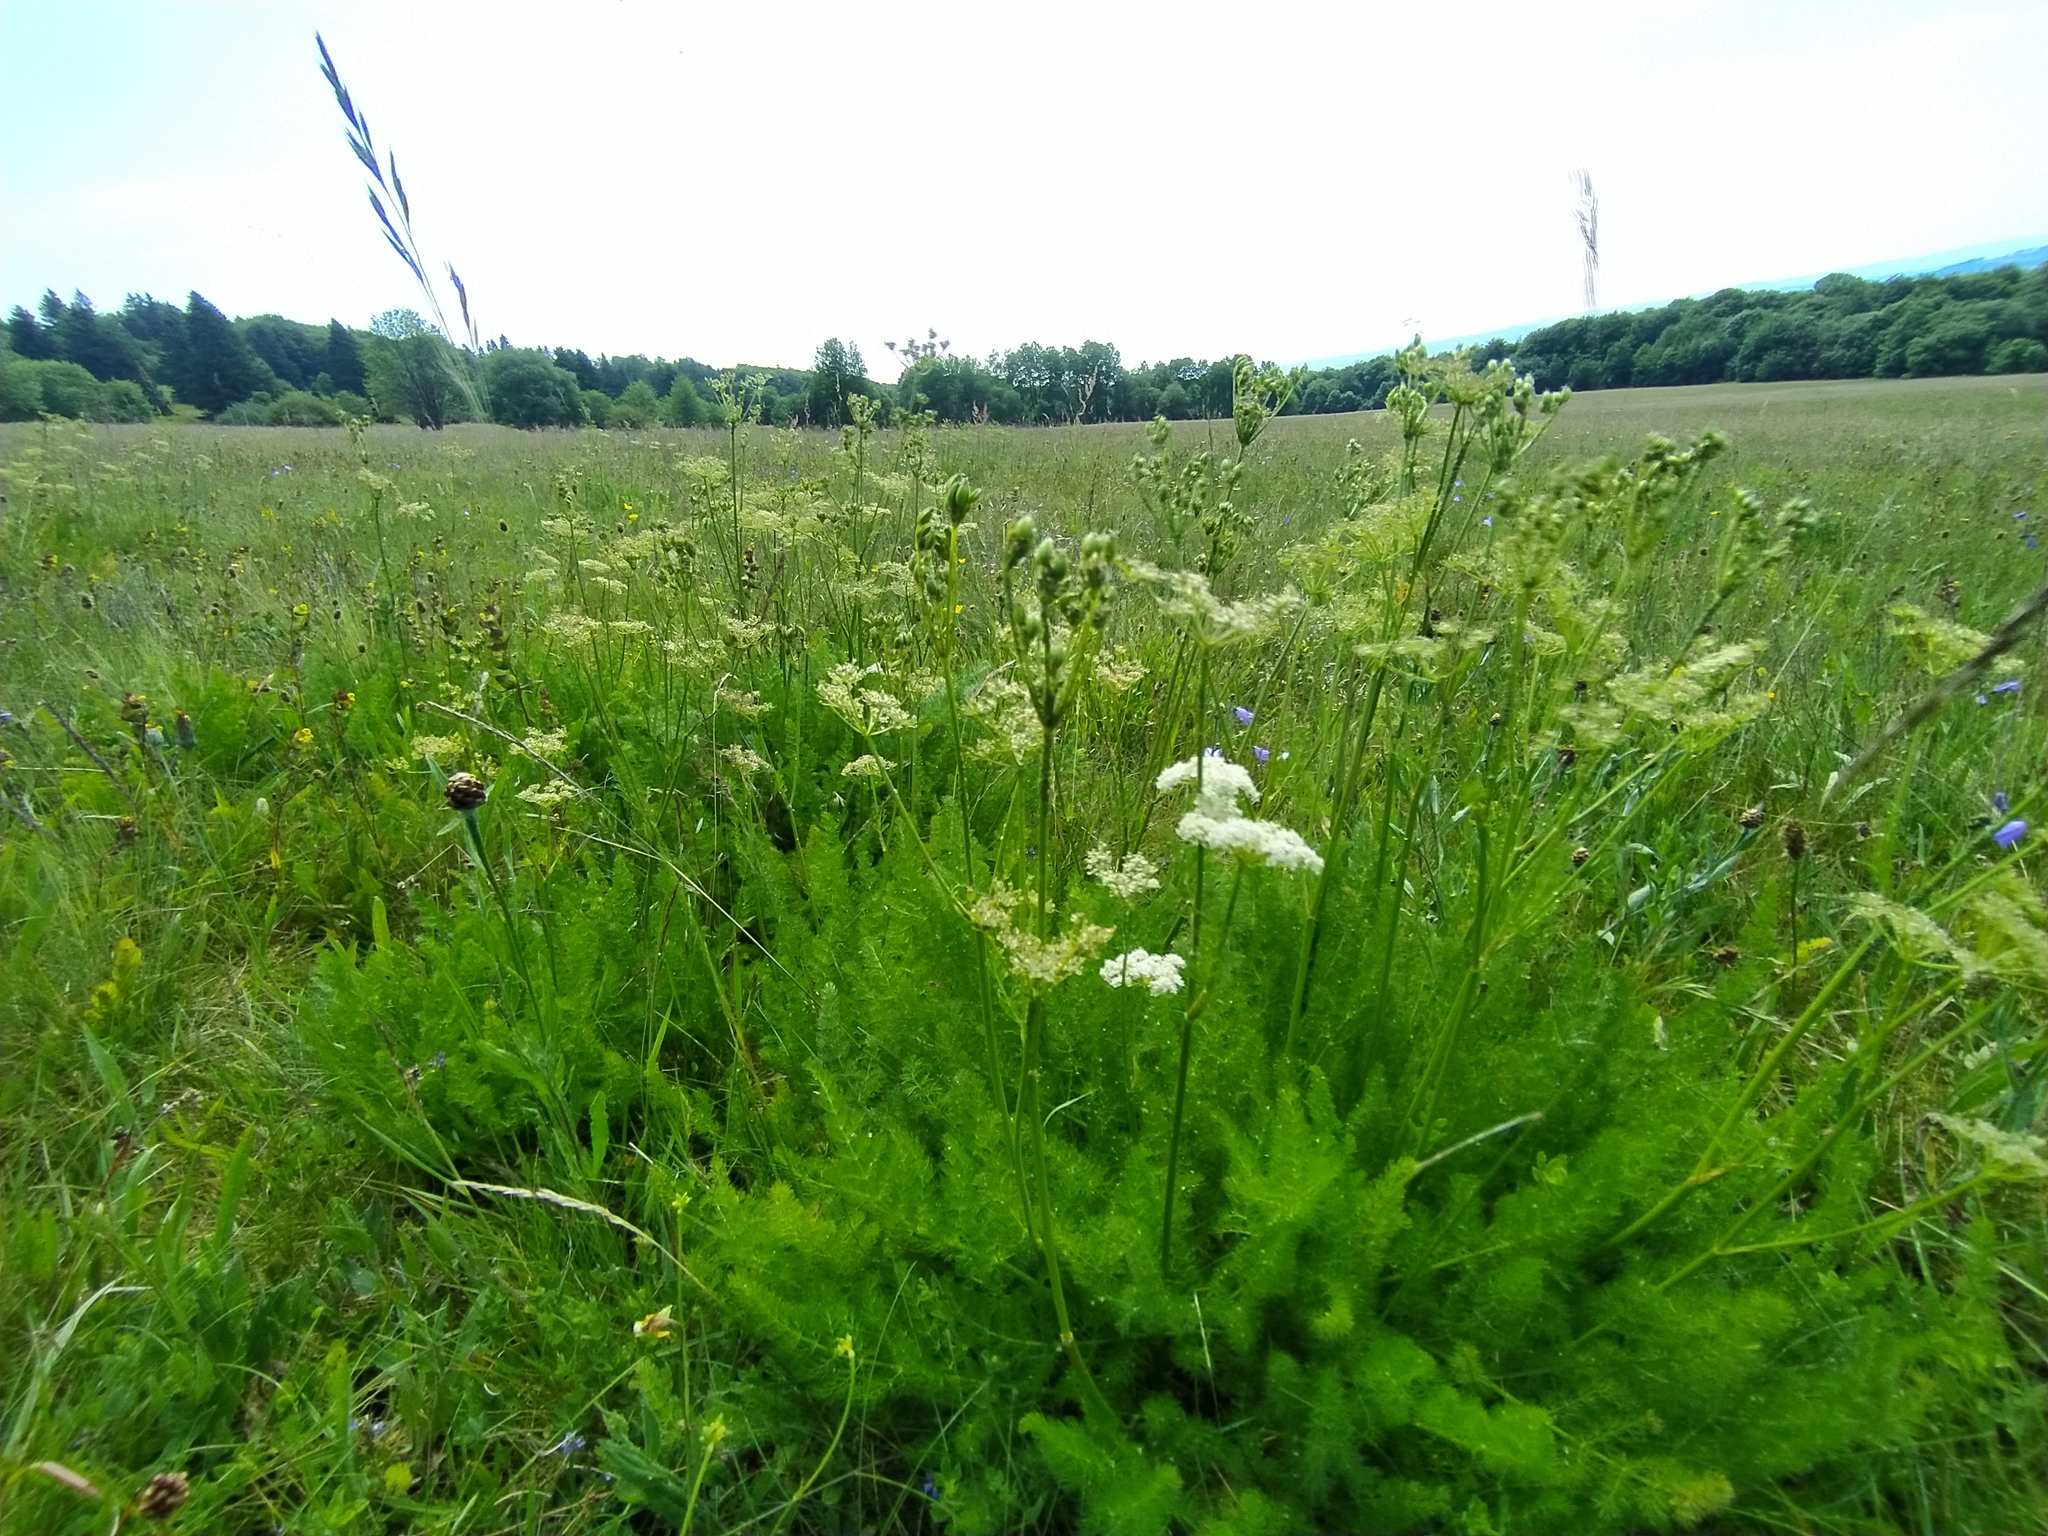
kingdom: Plantae
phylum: Tracheophyta
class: Magnoliopsida
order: Apiales
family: Apiaceae
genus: Meum
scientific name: Meum athamanticum
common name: Spignel
